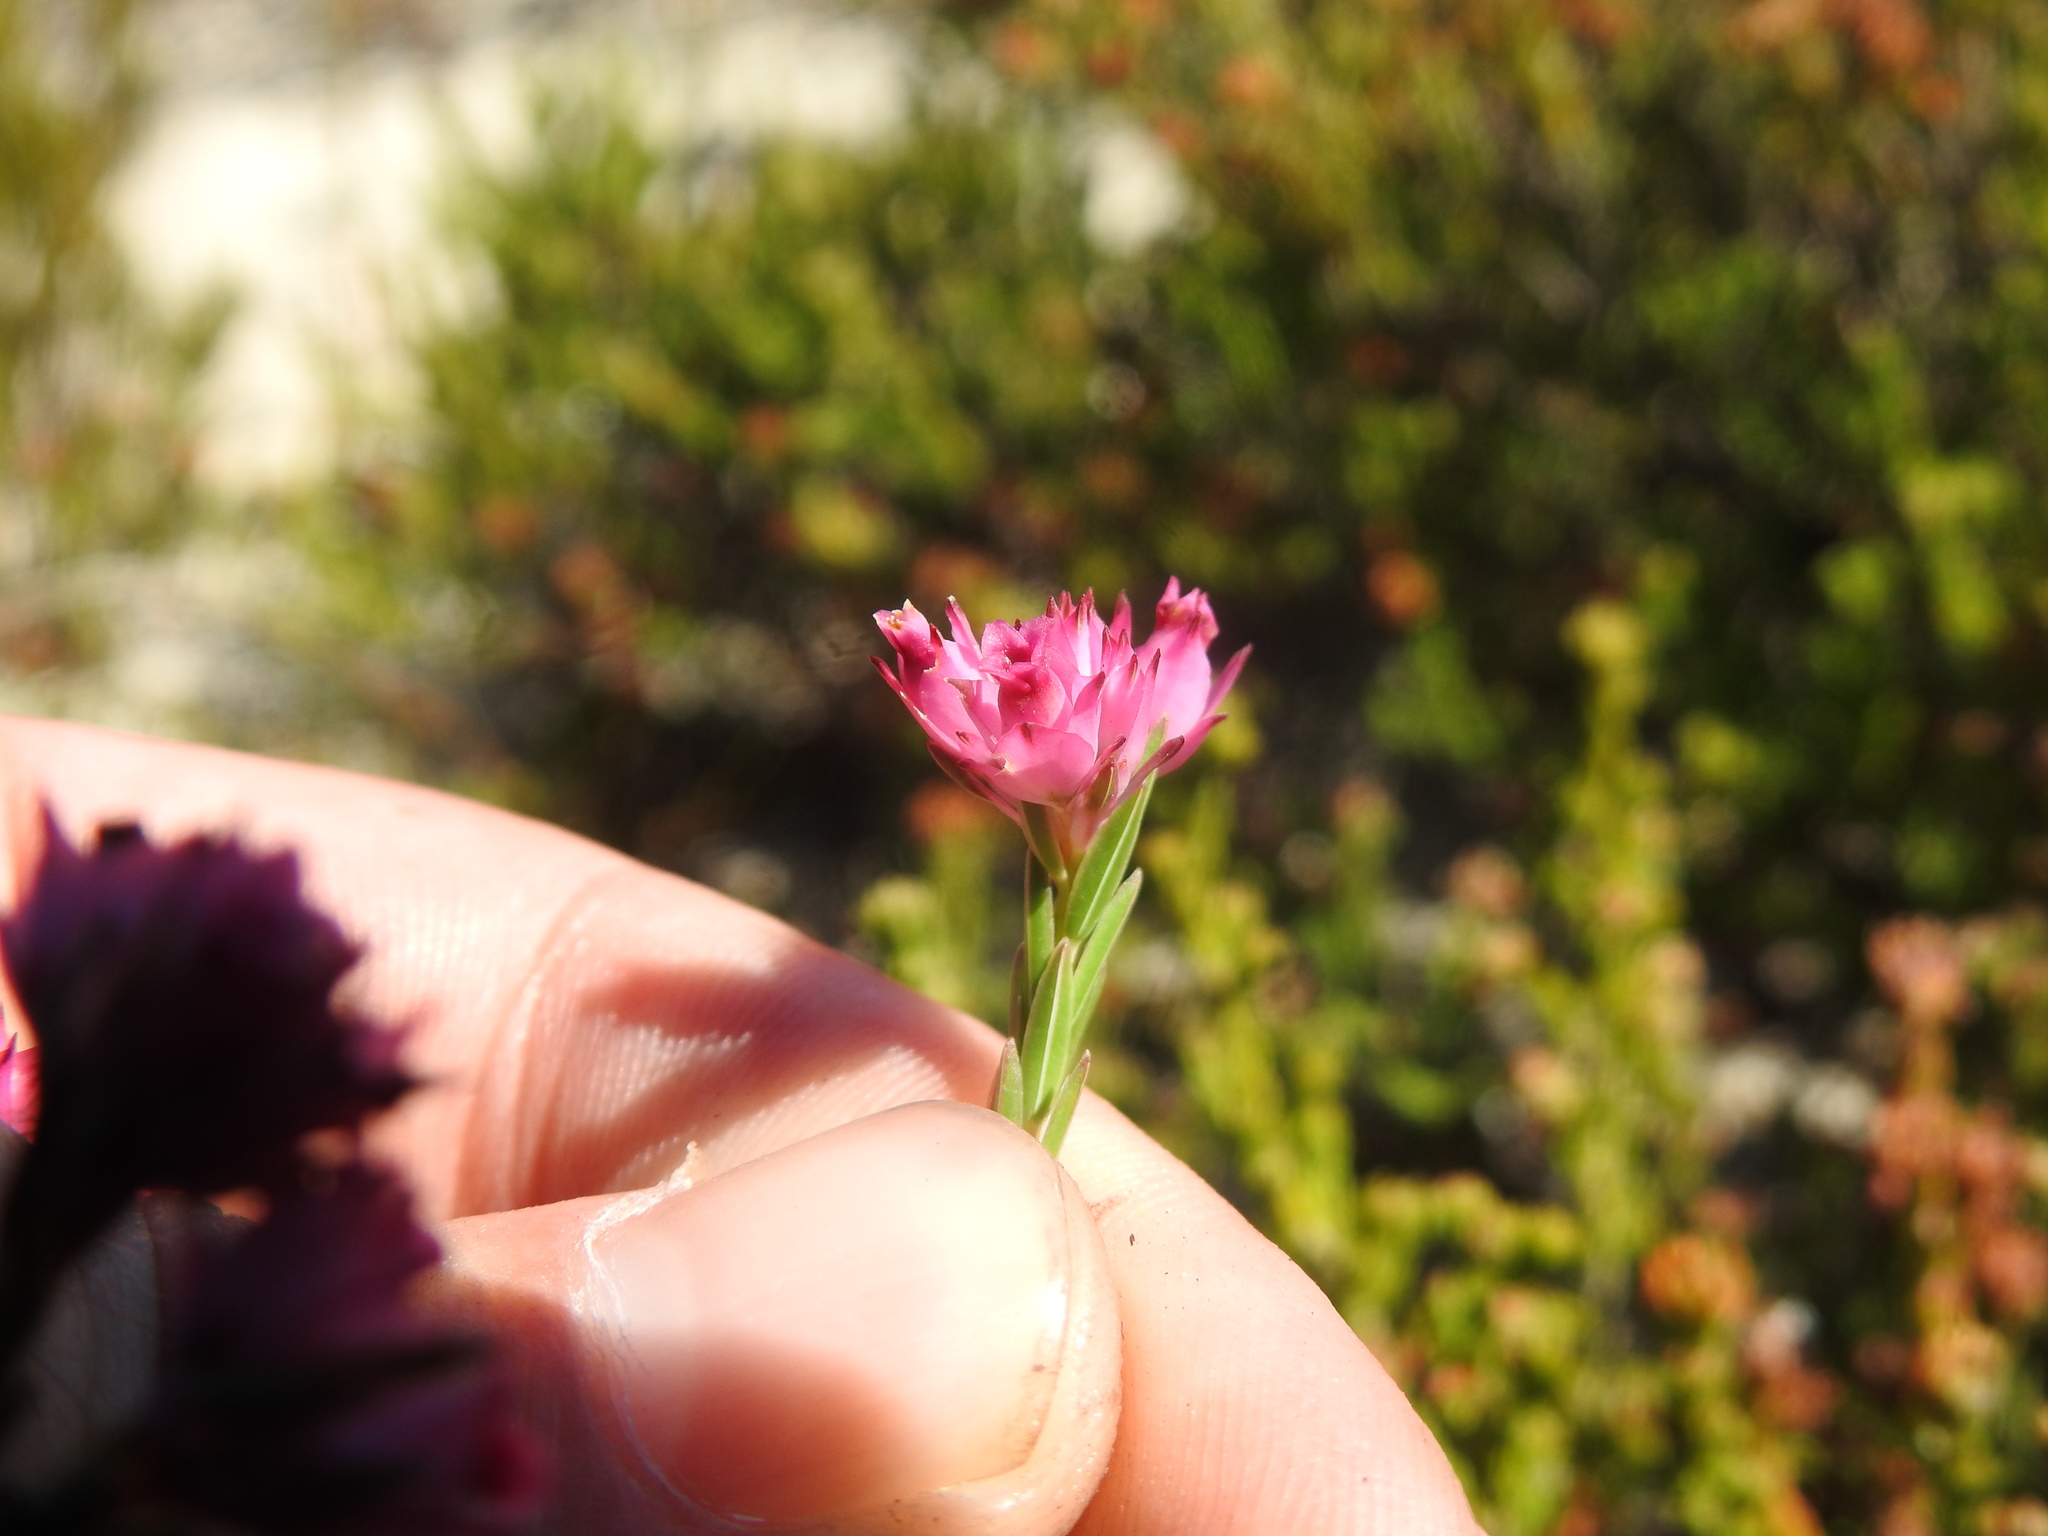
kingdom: Plantae
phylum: Tracheophyta
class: Magnoliopsida
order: Ericales
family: Ericaceae
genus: Erica
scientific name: Erica taxifolia
